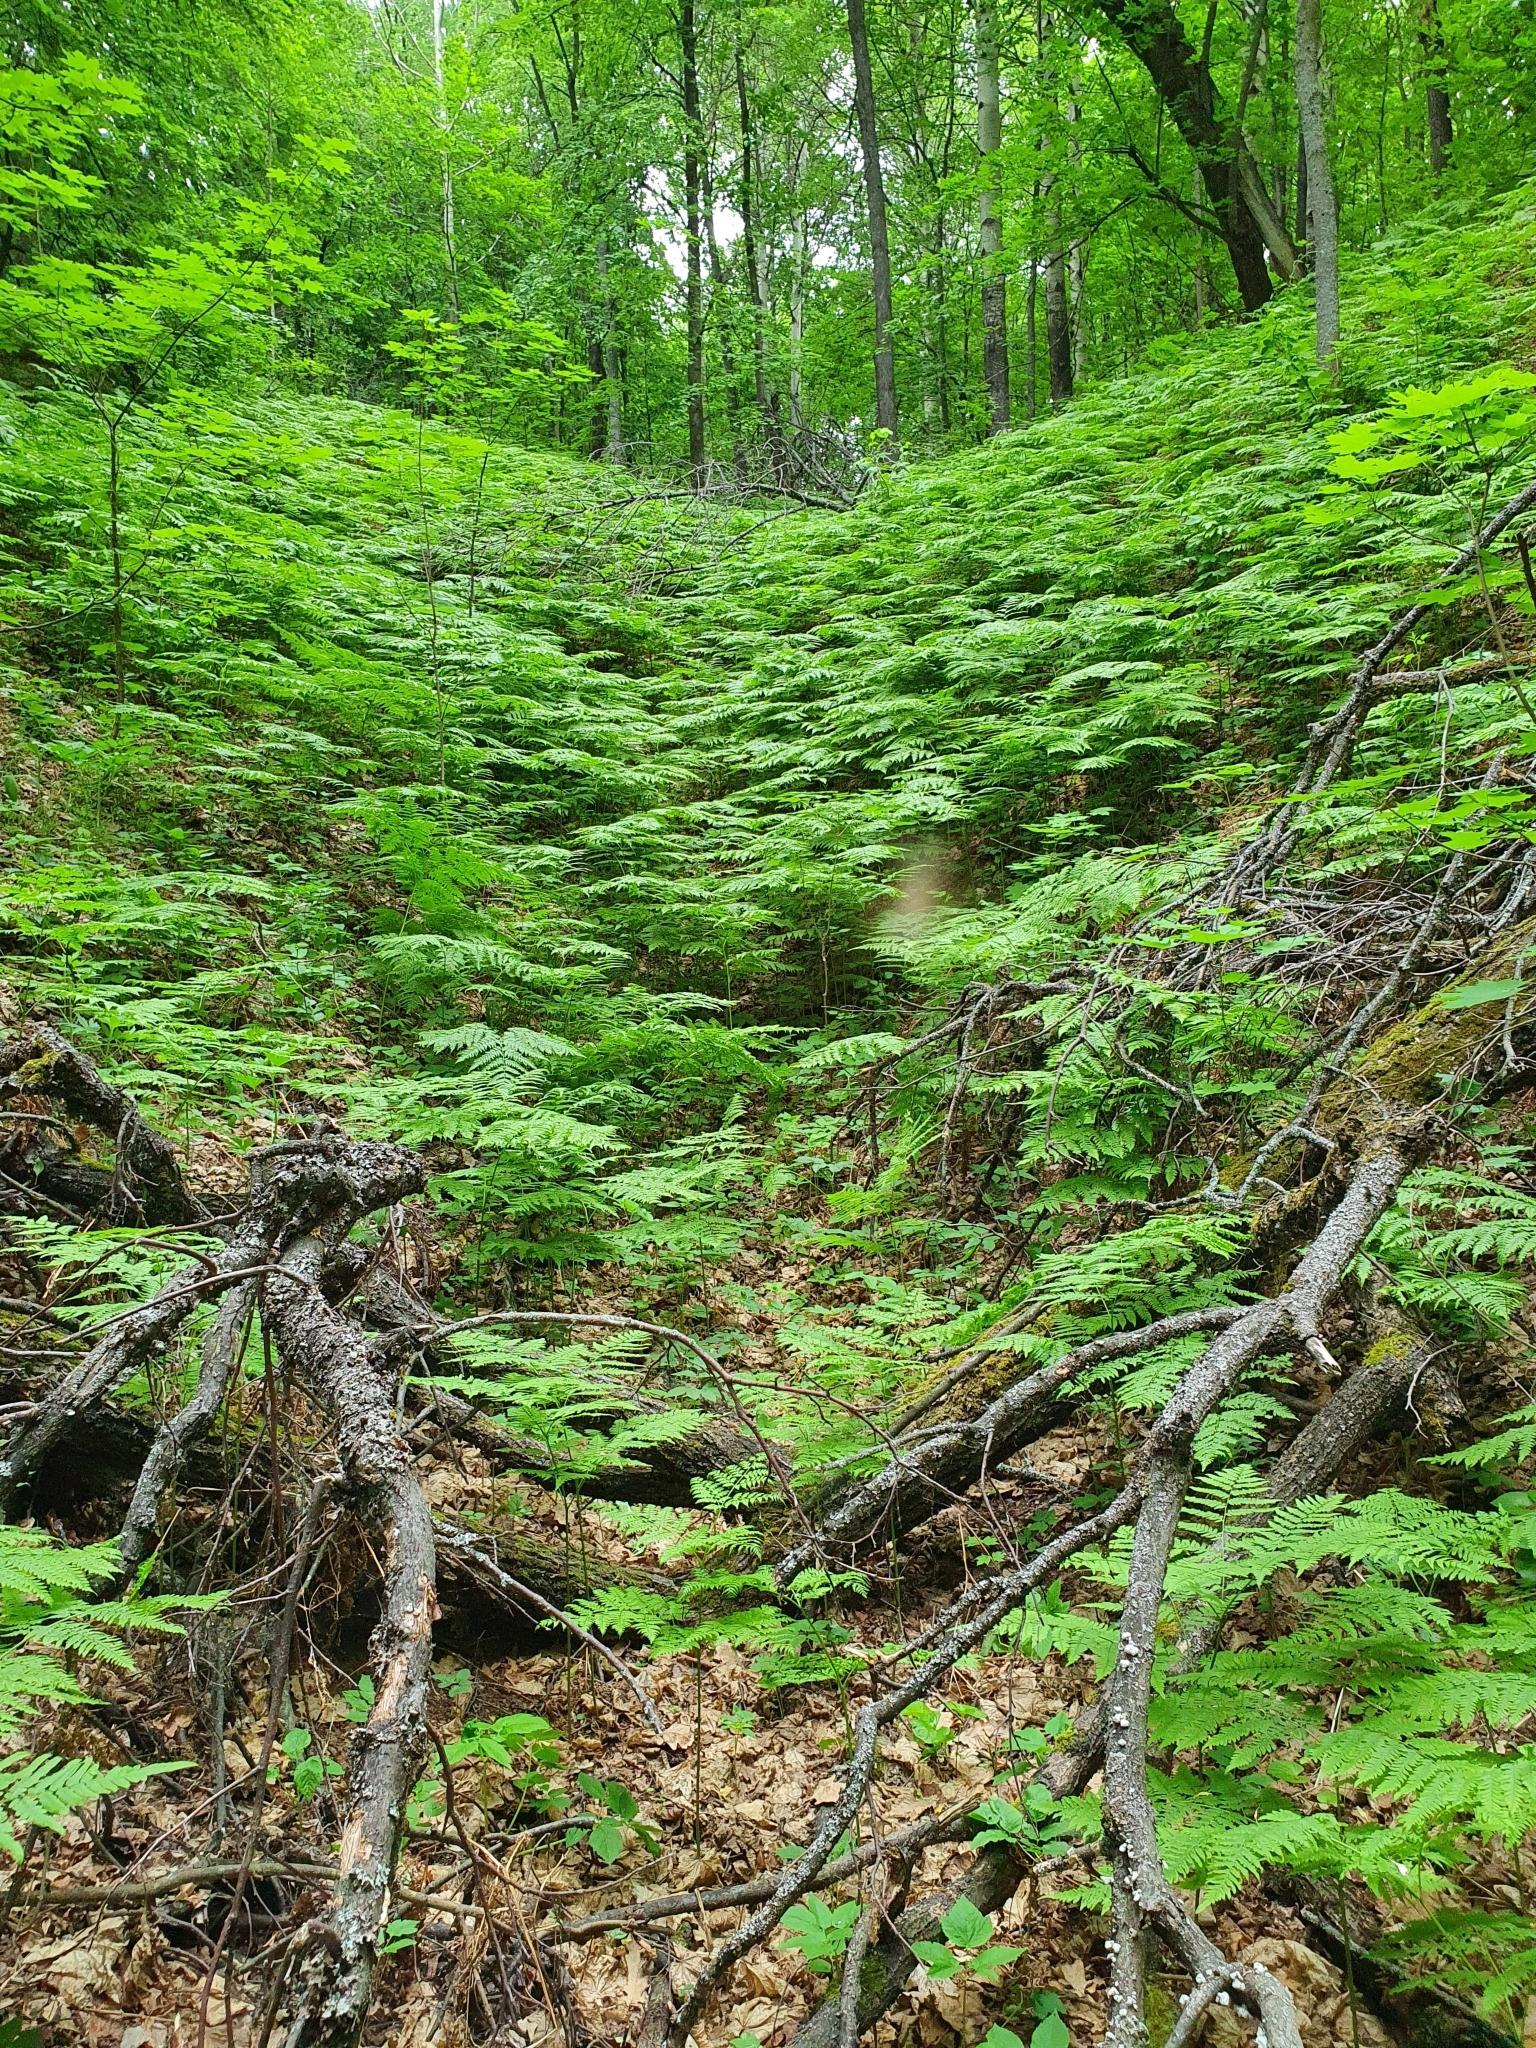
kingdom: Plantae
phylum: Tracheophyta
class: Polypodiopsida
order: Polypodiales
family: Dennstaedtiaceae
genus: Pteridium
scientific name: Pteridium aquilinum
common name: Bracken
